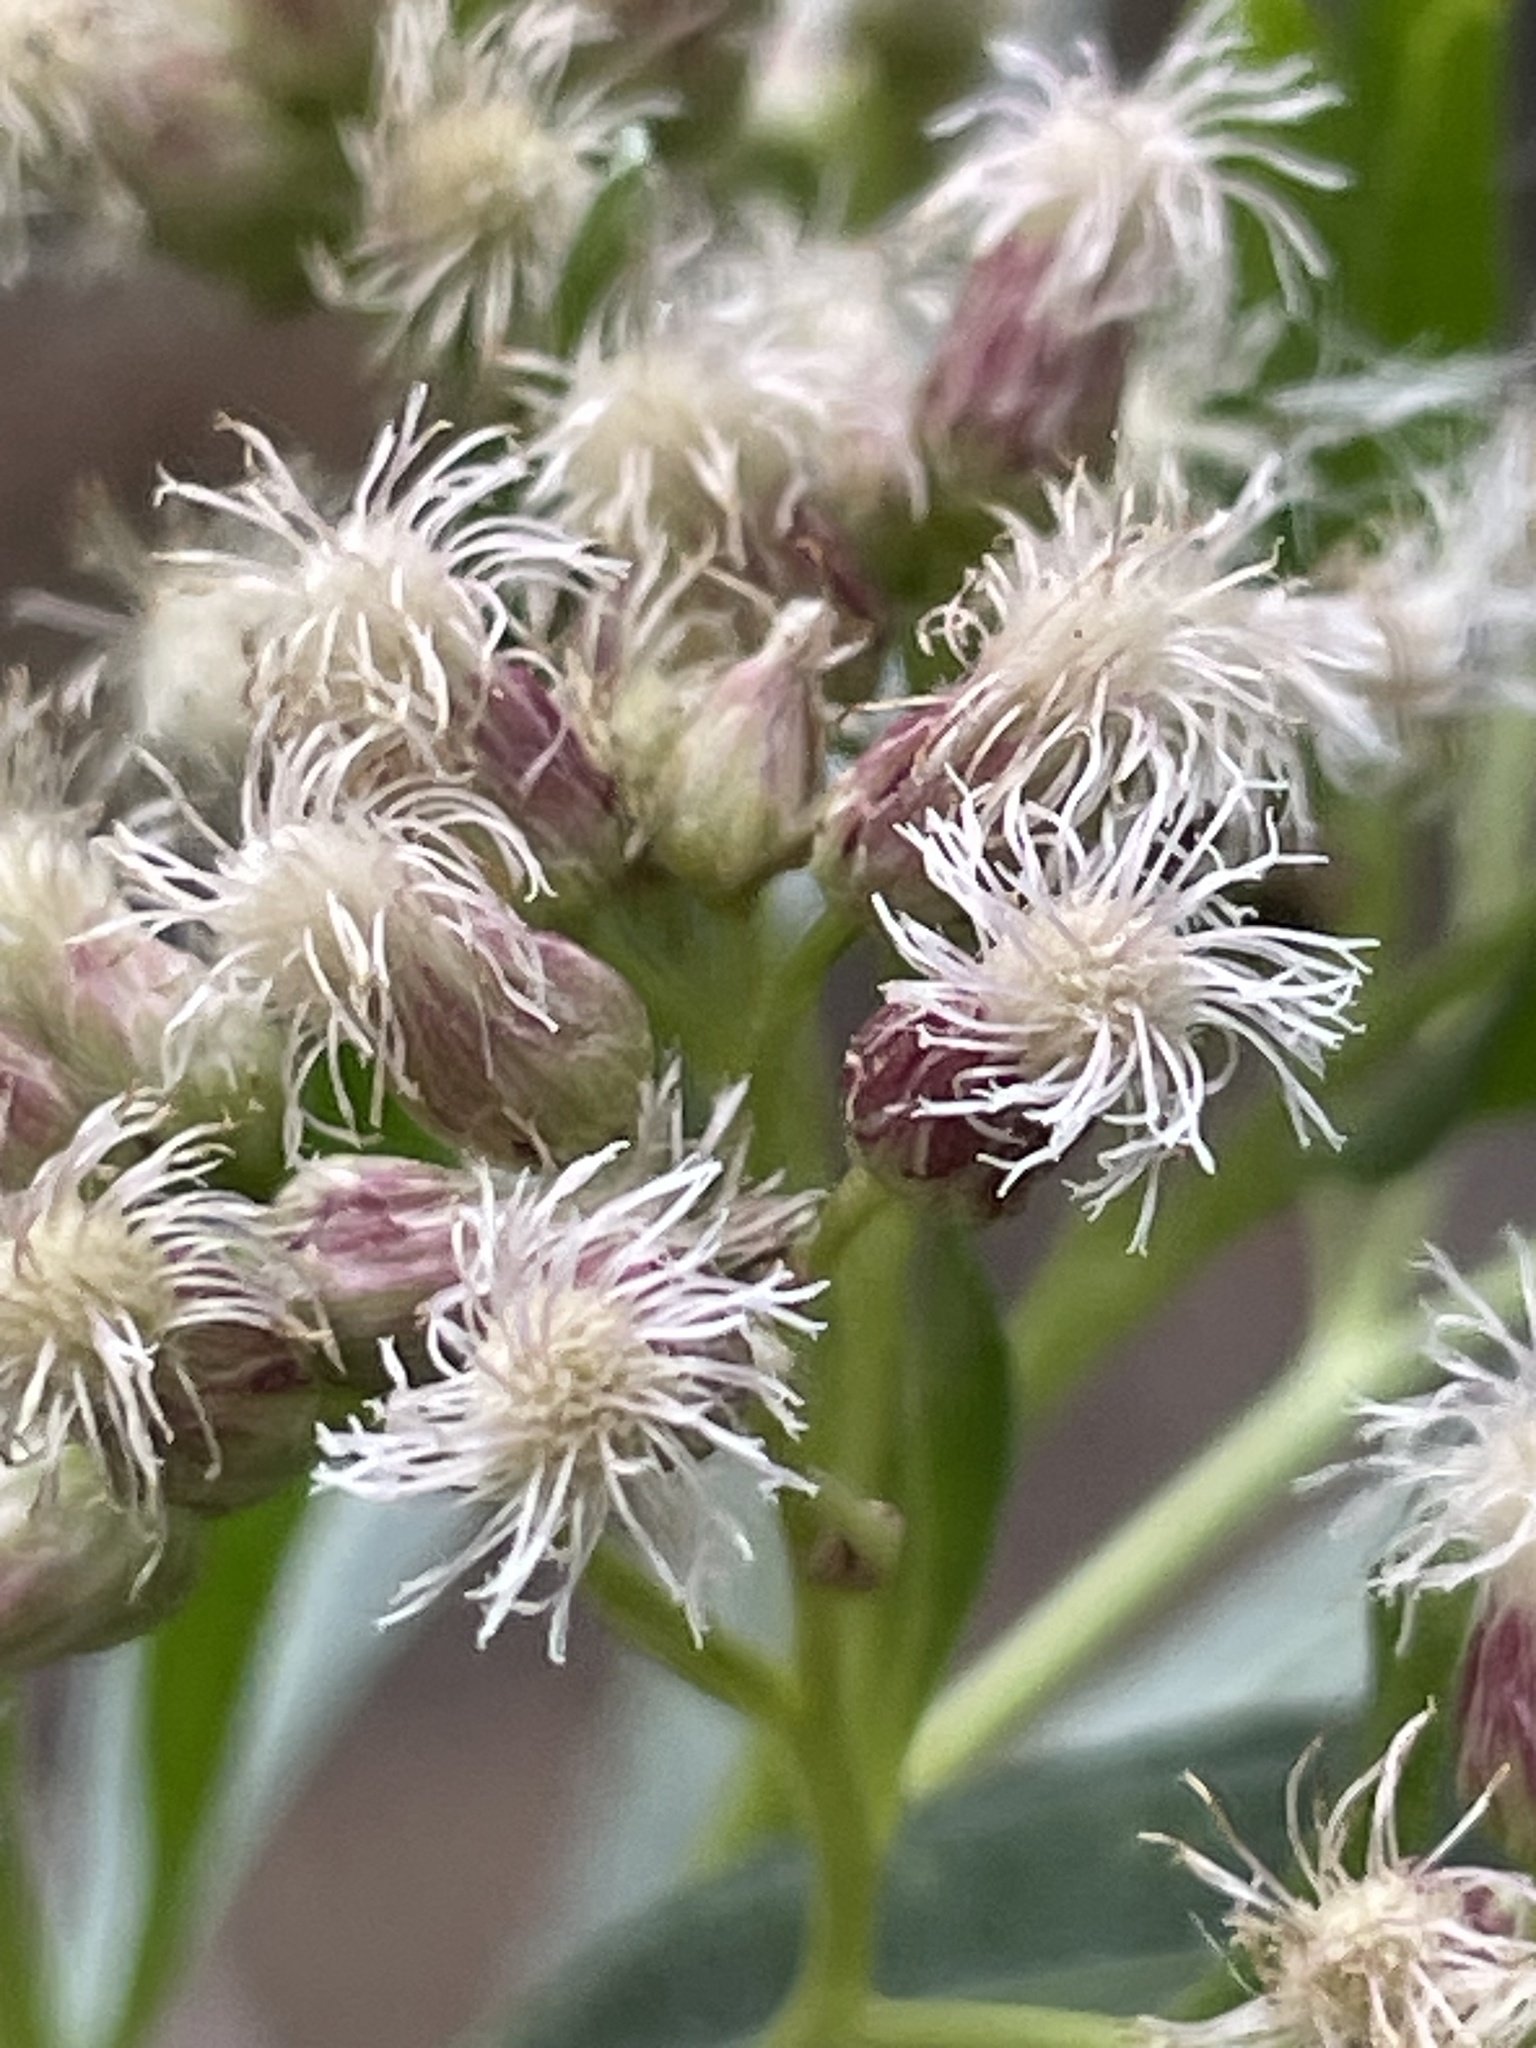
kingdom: Plantae
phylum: Tracheophyta
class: Magnoliopsida
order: Asterales
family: Asteraceae
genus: Baccharis
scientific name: Baccharis salicifolia
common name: Sticky baccharis
